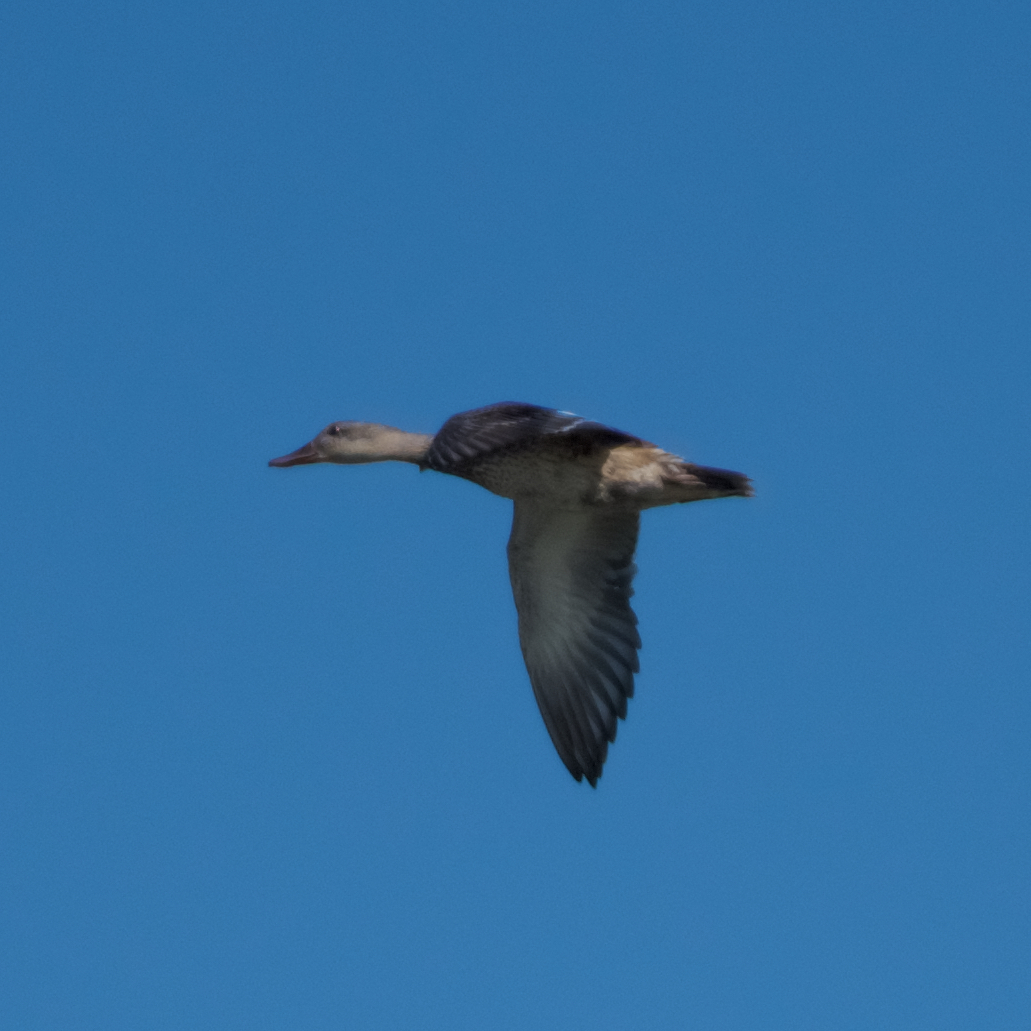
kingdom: Animalia
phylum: Chordata
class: Aves
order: Anseriformes
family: Anatidae
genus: Mareca
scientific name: Mareca strepera
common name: Gadwall
